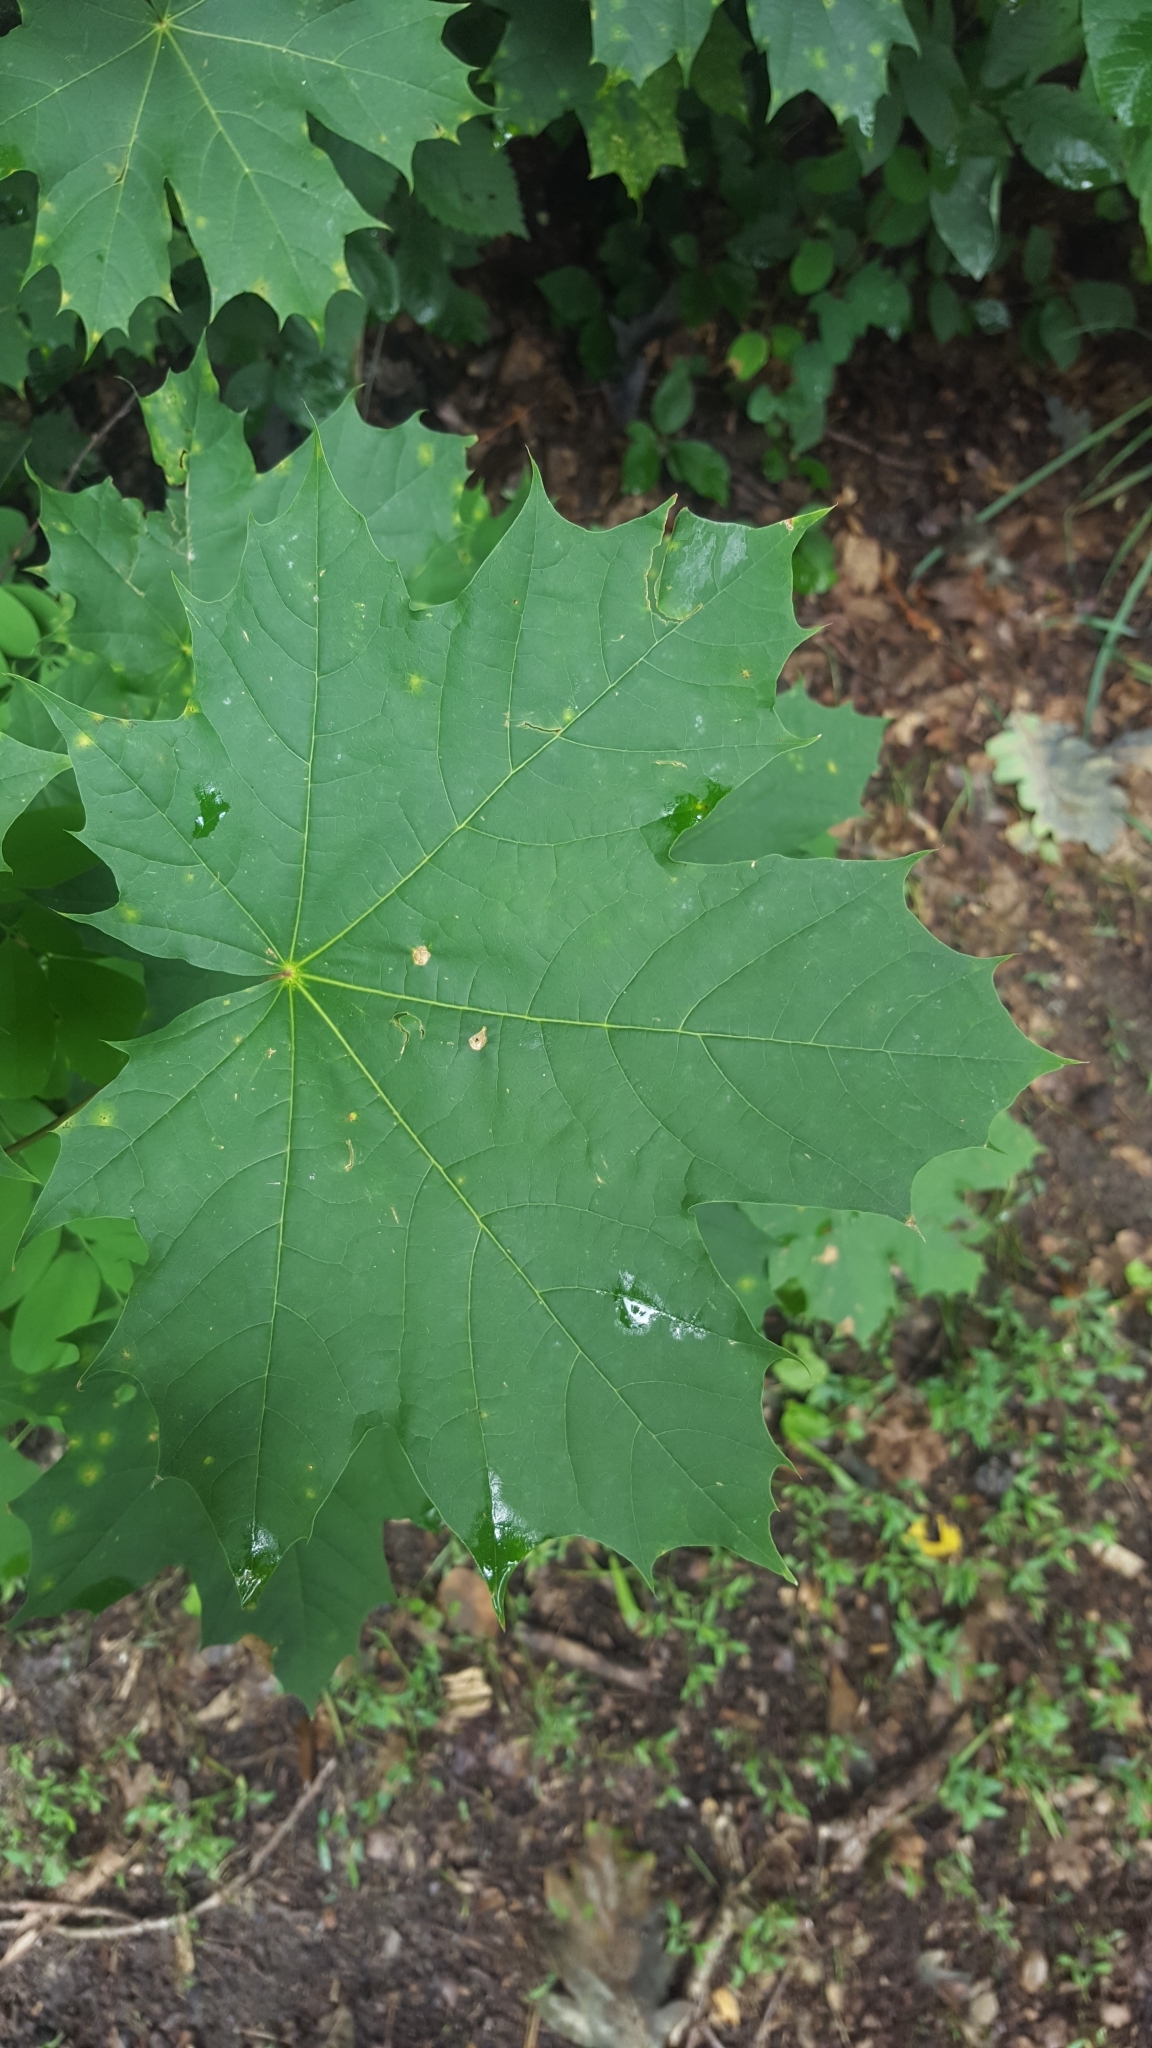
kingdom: Plantae
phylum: Tracheophyta
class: Magnoliopsida
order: Sapindales
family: Sapindaceae
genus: Acer
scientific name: Acer platanoides
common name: Norway maple
